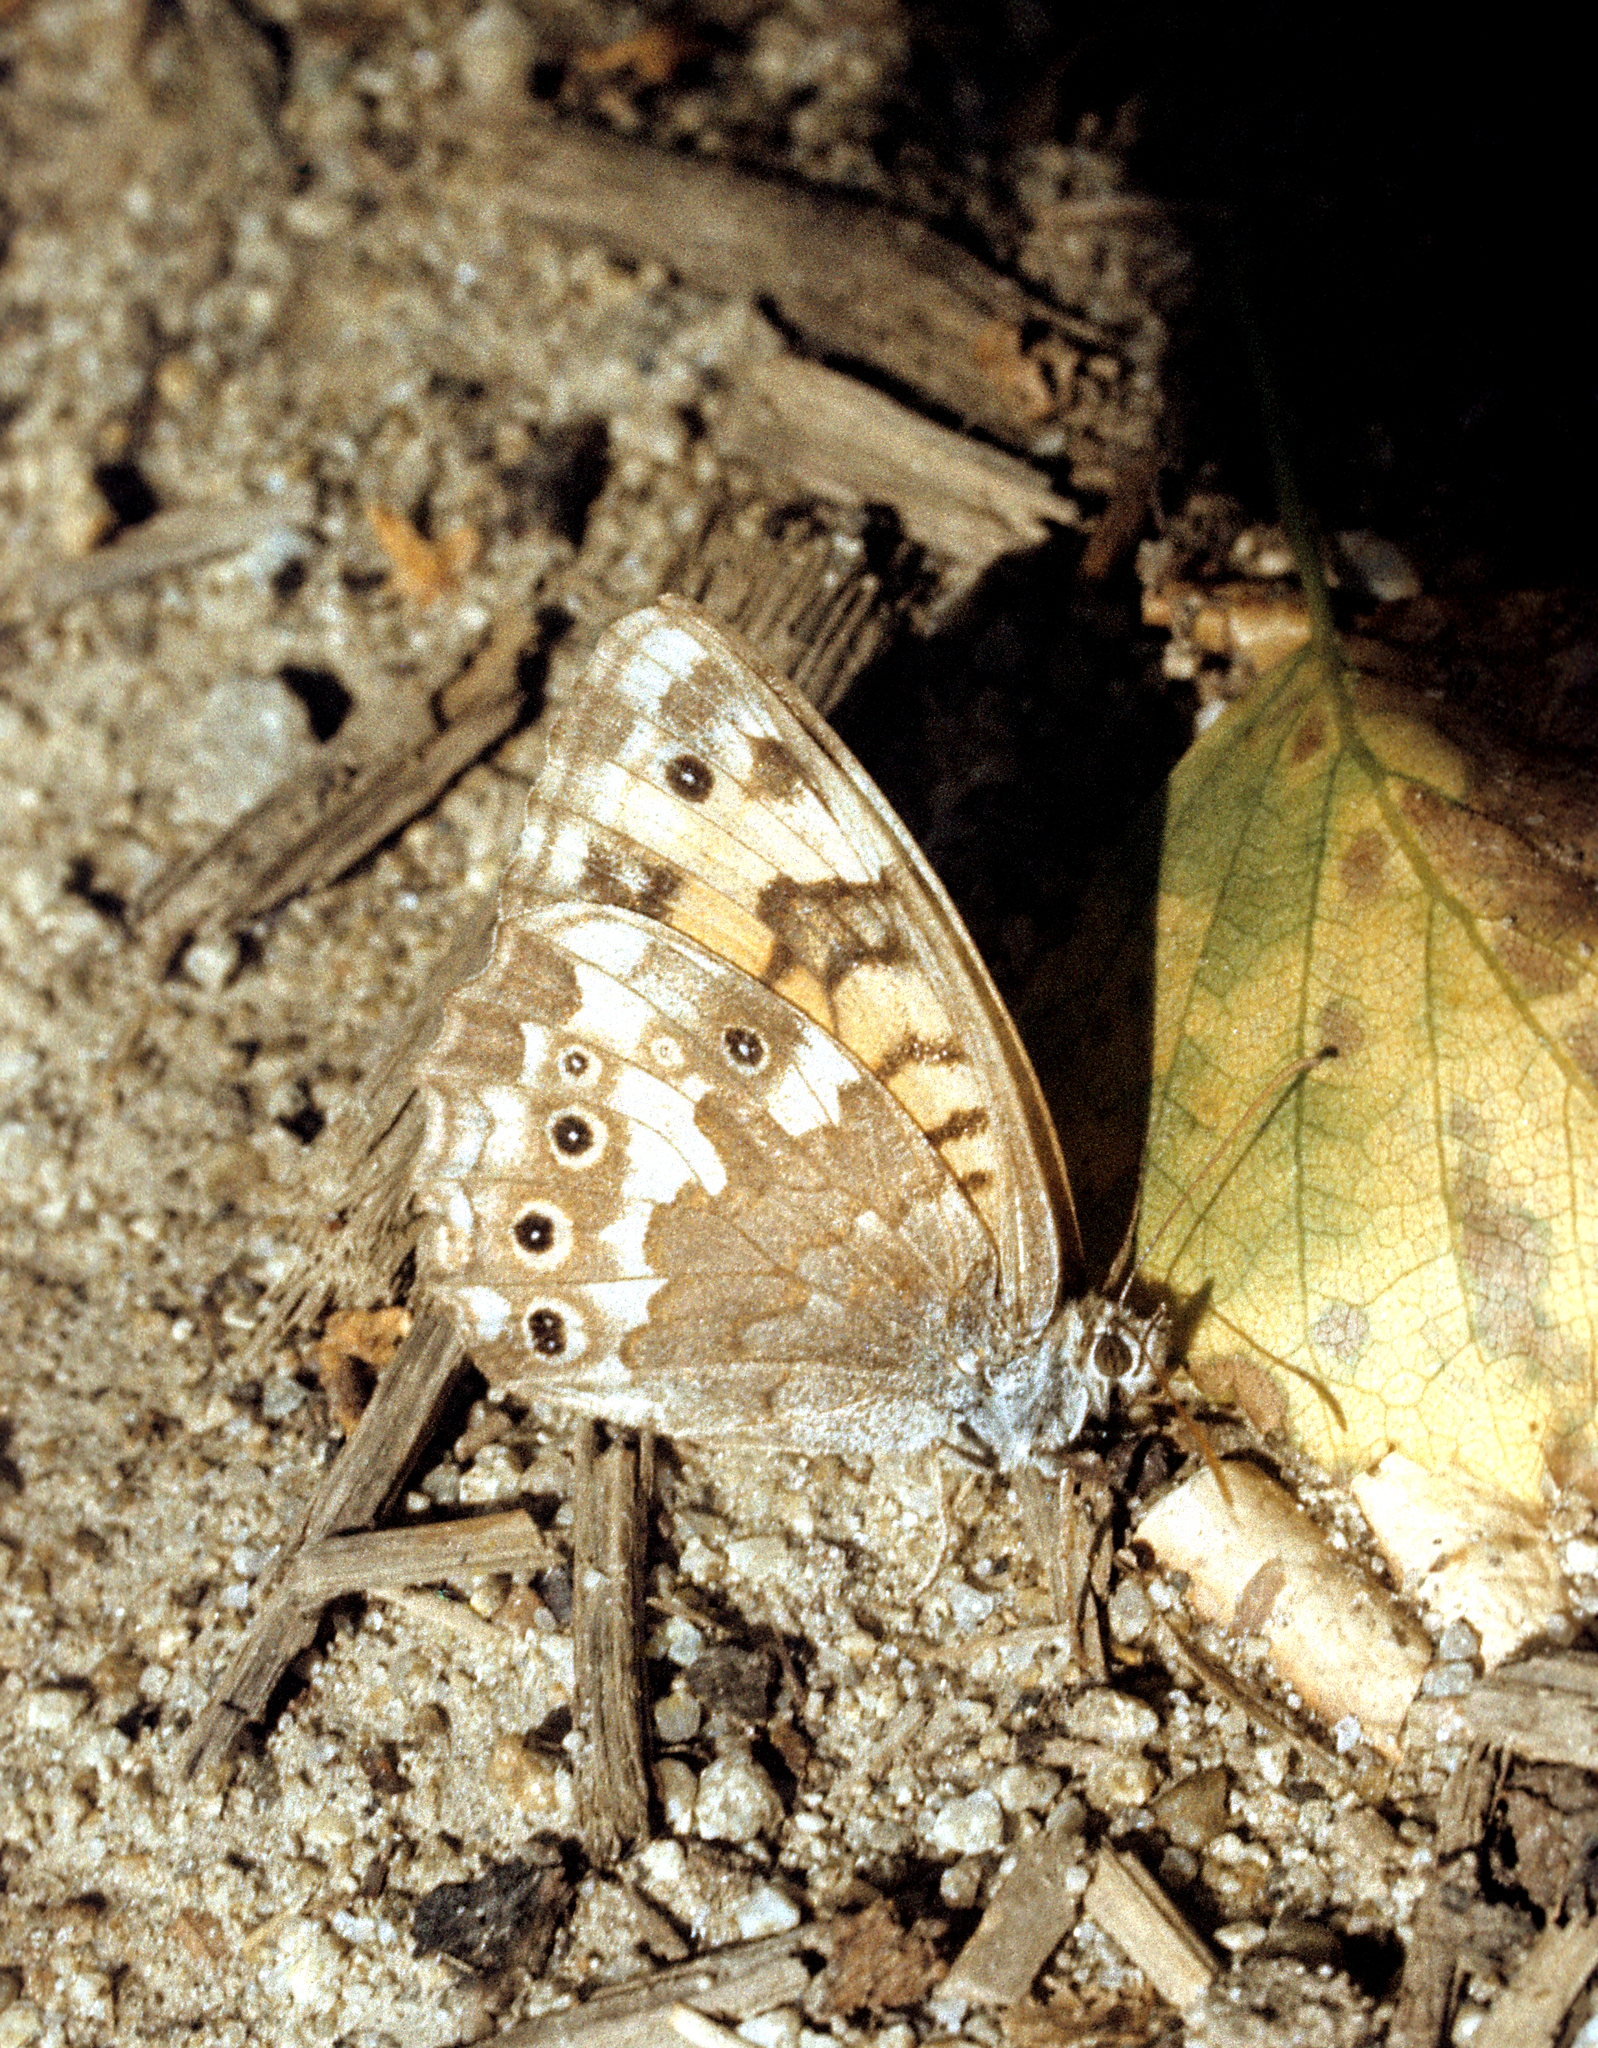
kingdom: Animalia
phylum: Arthropoda
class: Insecta
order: Lepidoptera
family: Nymphalidae
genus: Kirinia
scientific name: Kirinia eversmanni
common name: Yellow wall butterfly
